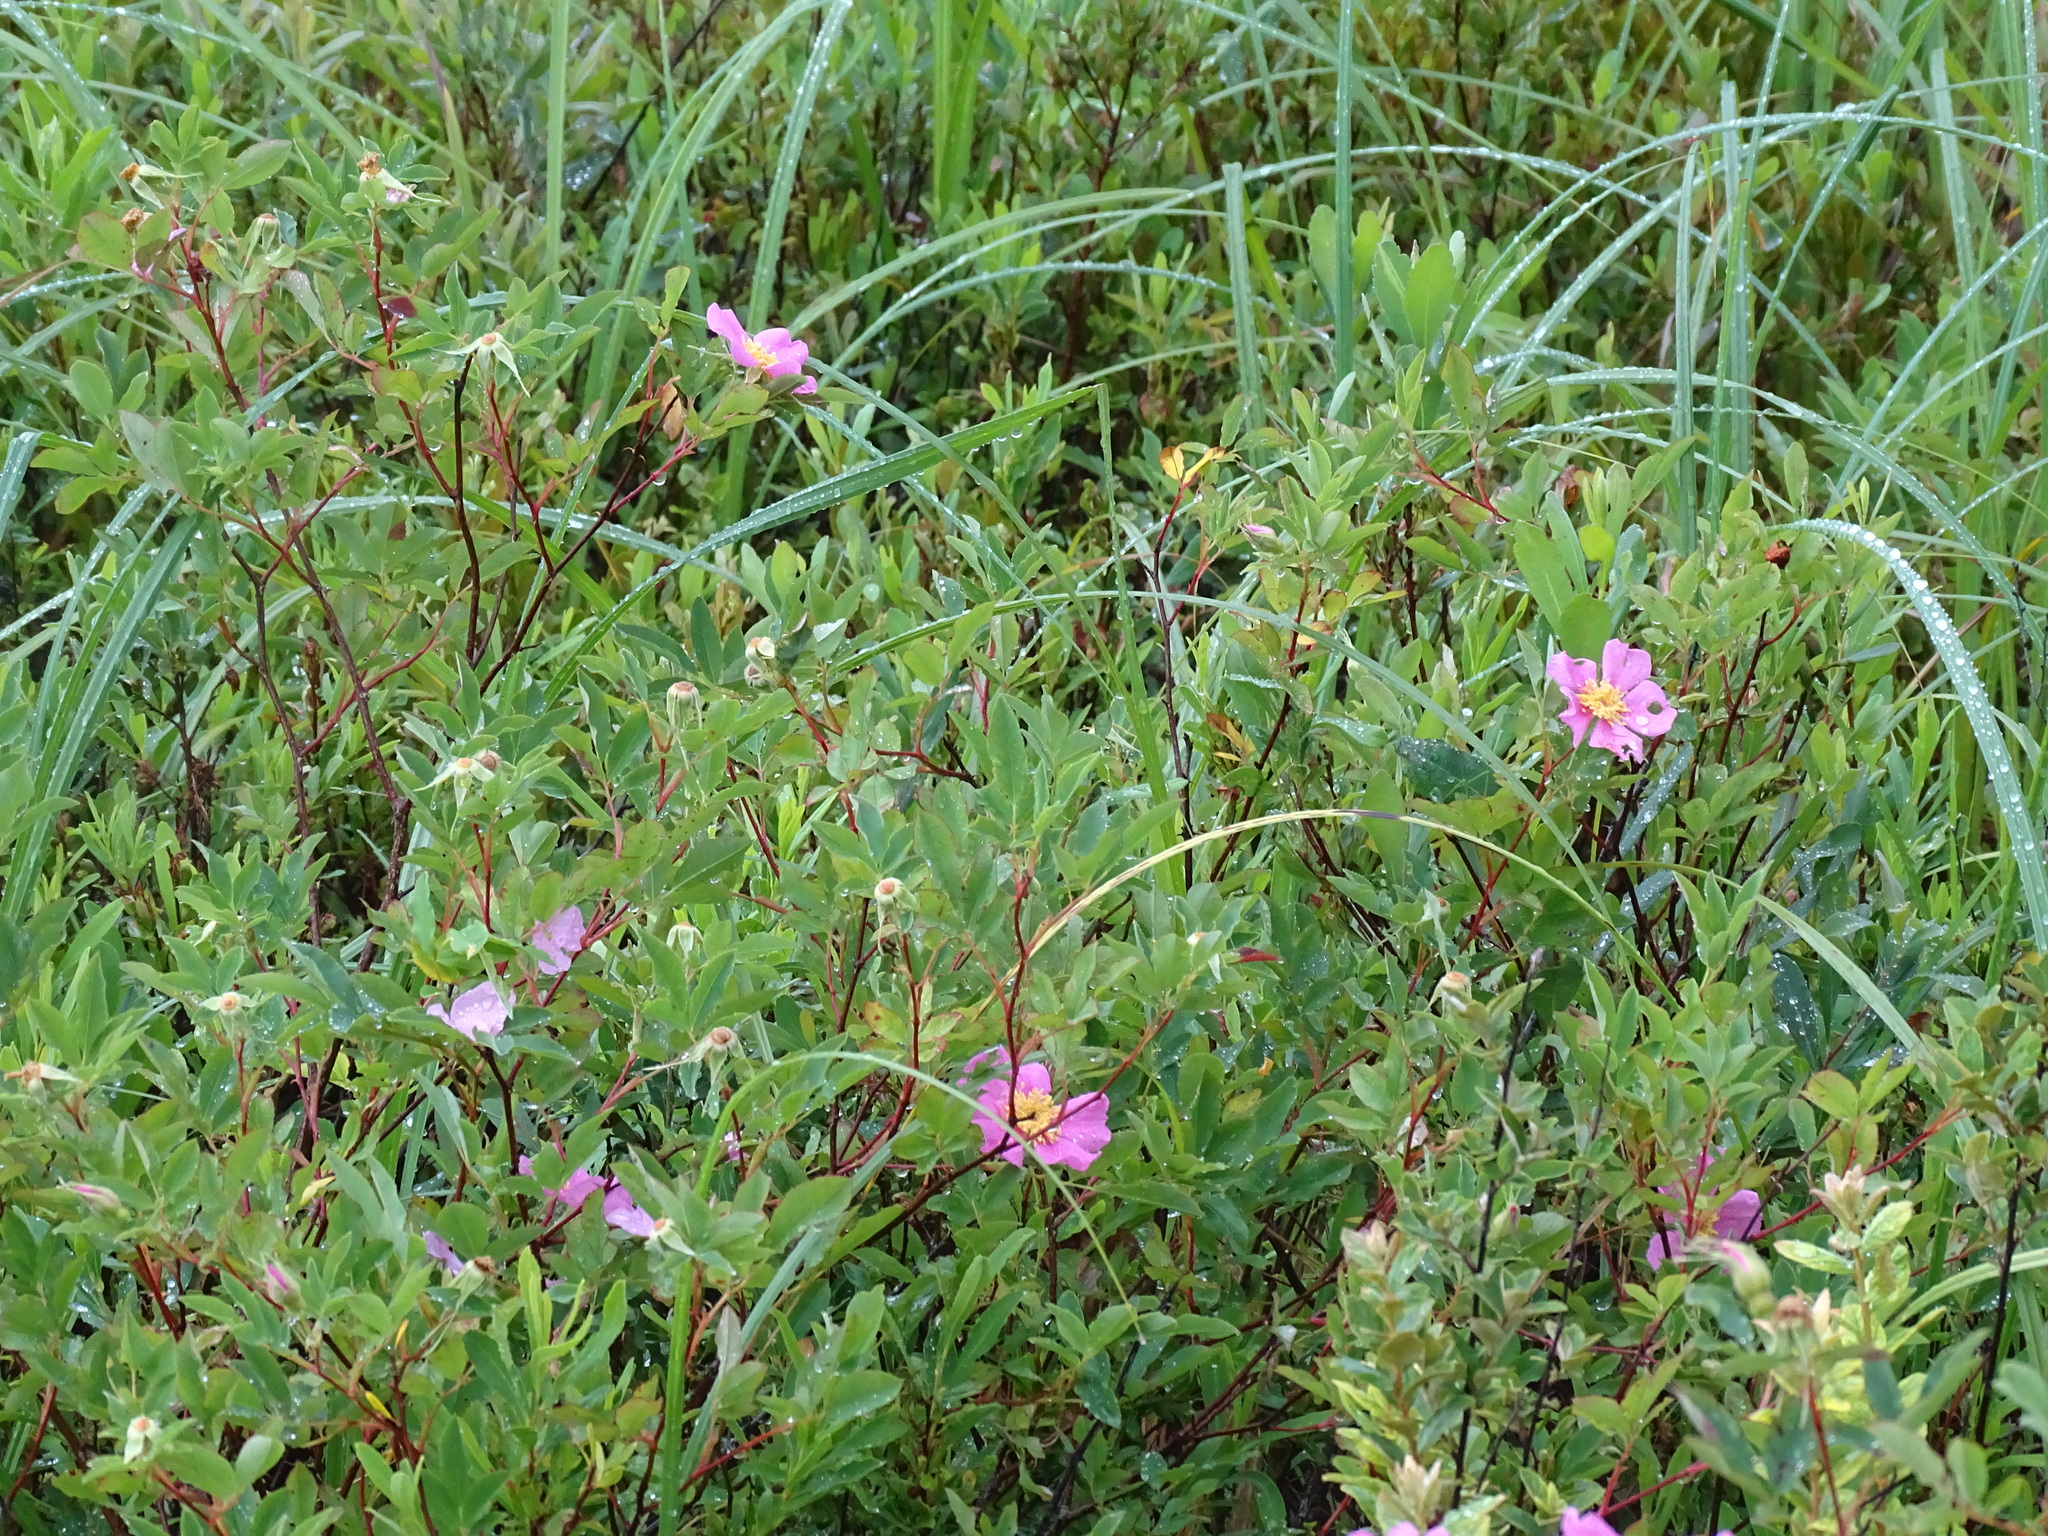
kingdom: Plantae
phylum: Tracheophyta
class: Magnoliopsida
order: Rosales
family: Rosaceae
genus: Rosa
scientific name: Rosa palustris
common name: Swamp rose
